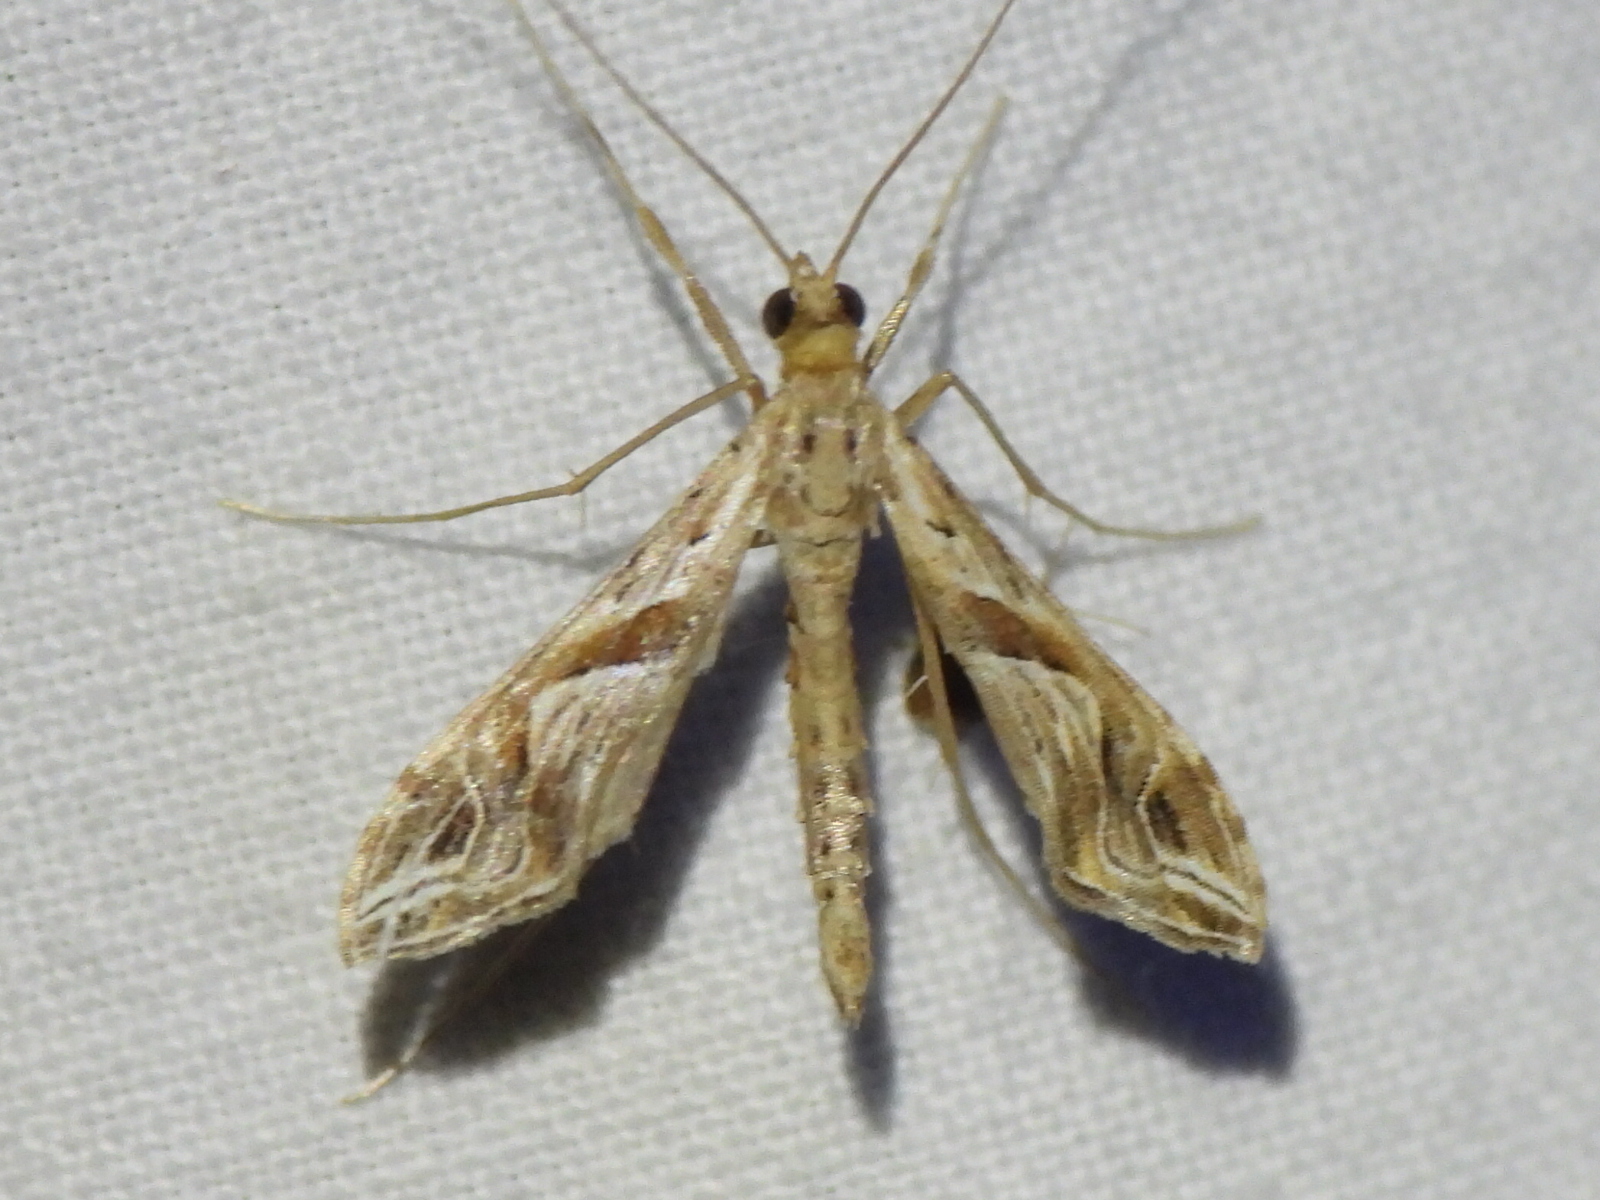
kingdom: Animalia
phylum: Arthropoda
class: Insecta
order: Lepidoptera
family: Crambidae
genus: Lineodes
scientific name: Lineodes integra
